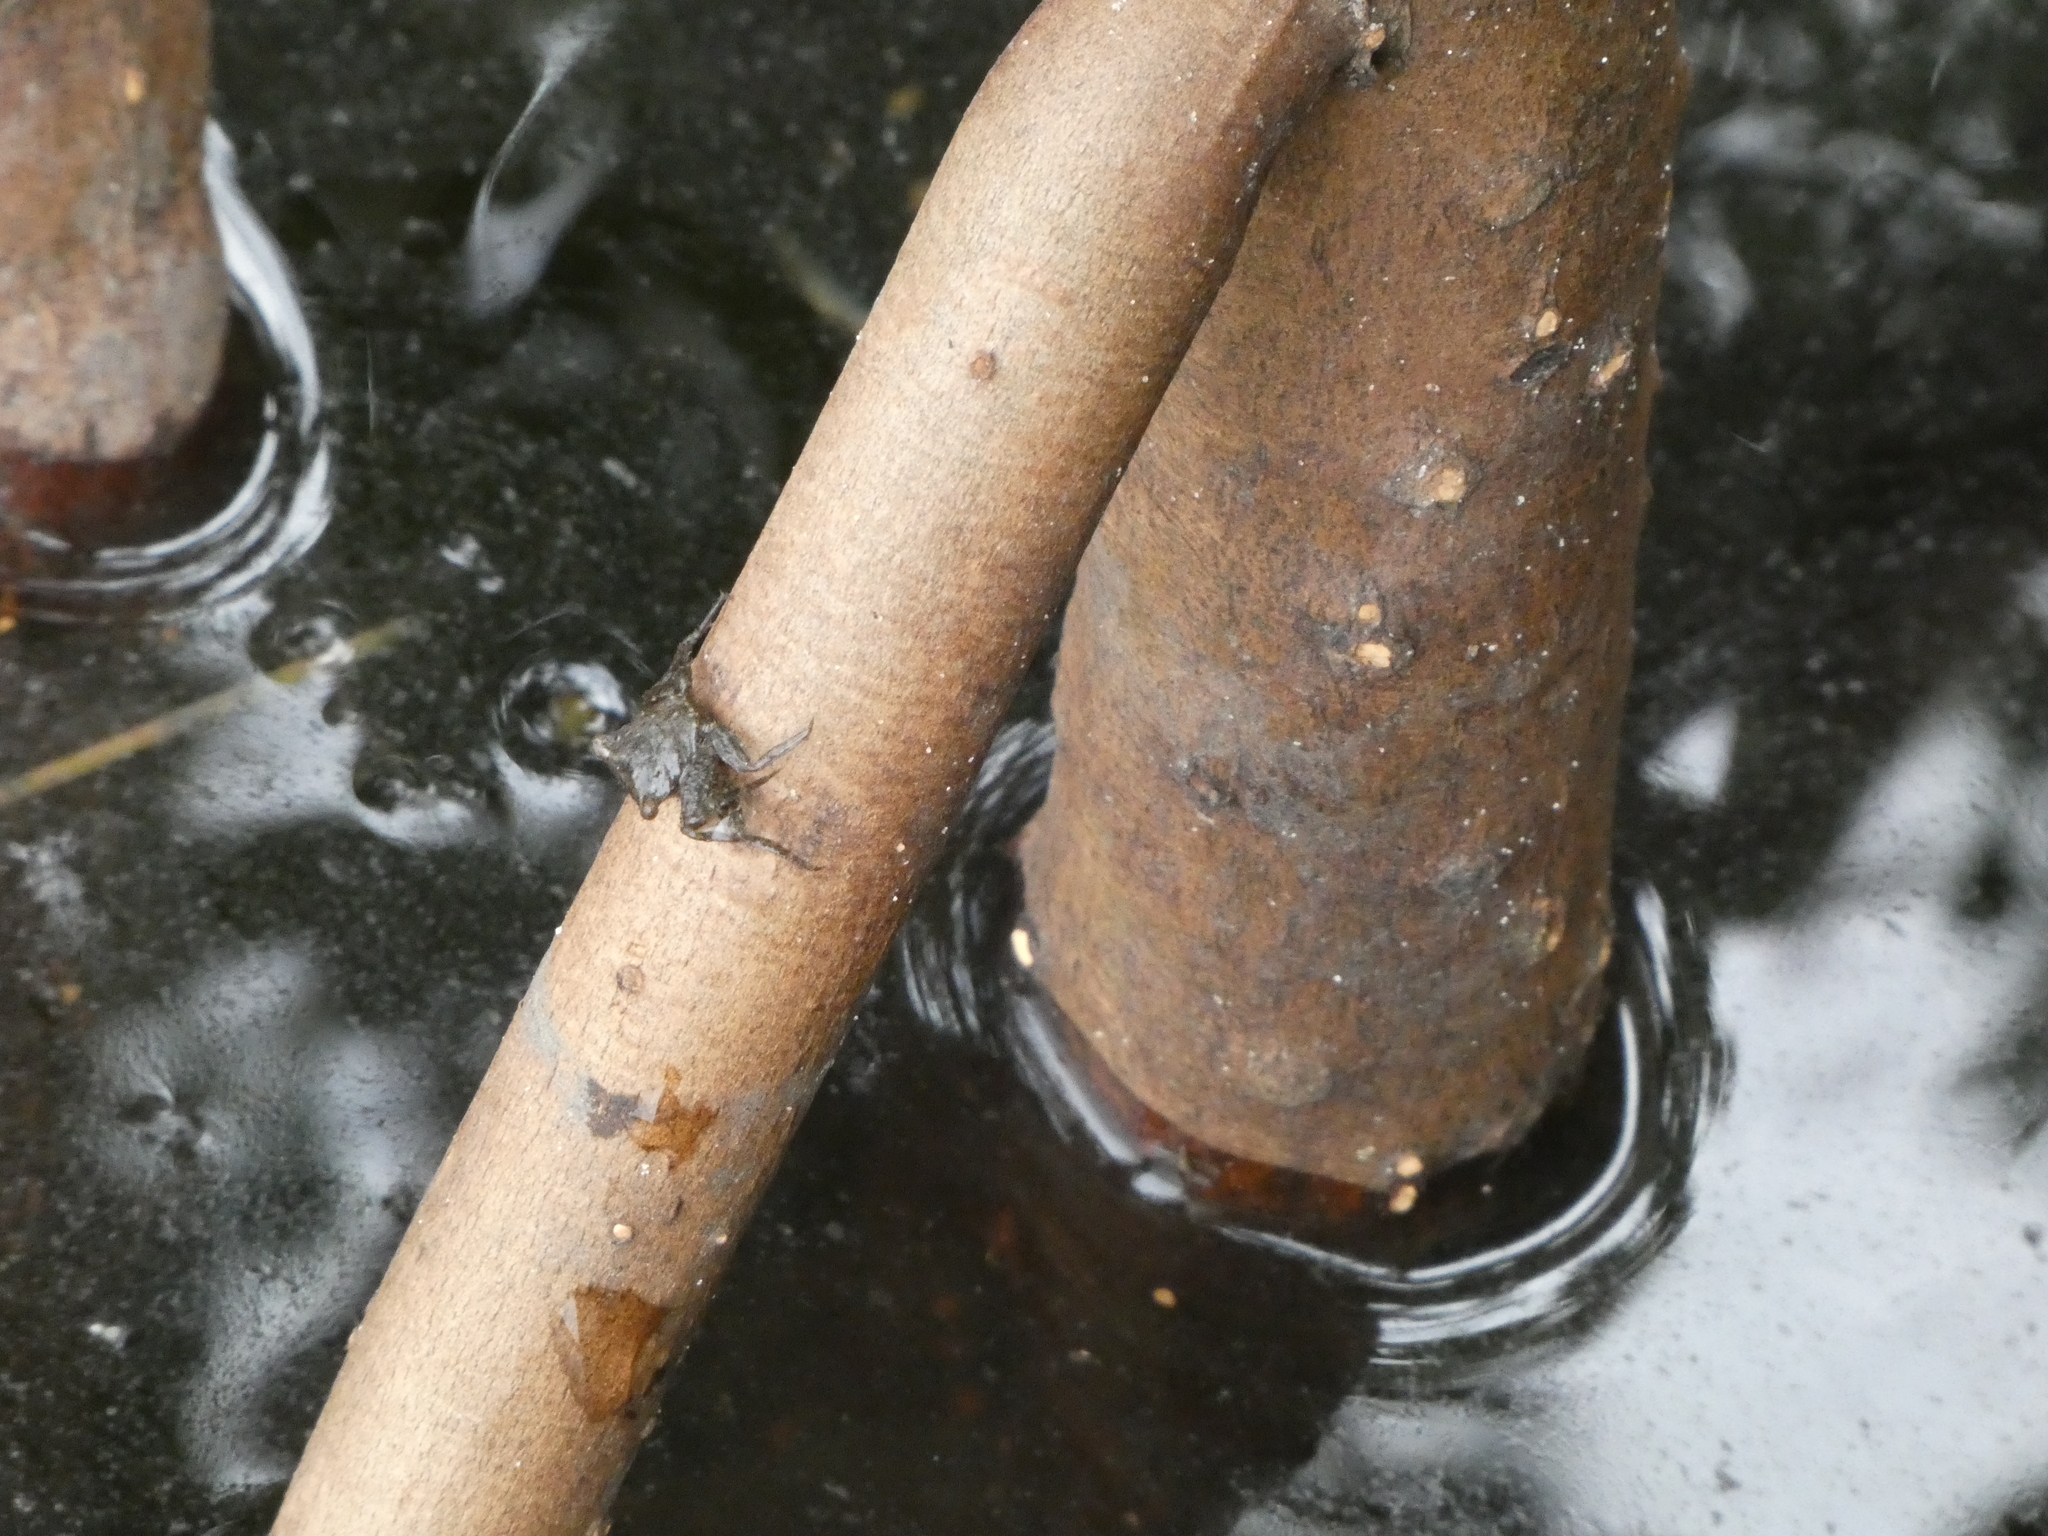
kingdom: Animalia
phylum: Arthropoda
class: Malacostraca
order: Decapoda
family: Sesarmidae
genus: Aratus
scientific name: Aratus pisonii
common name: Mangrove crab
